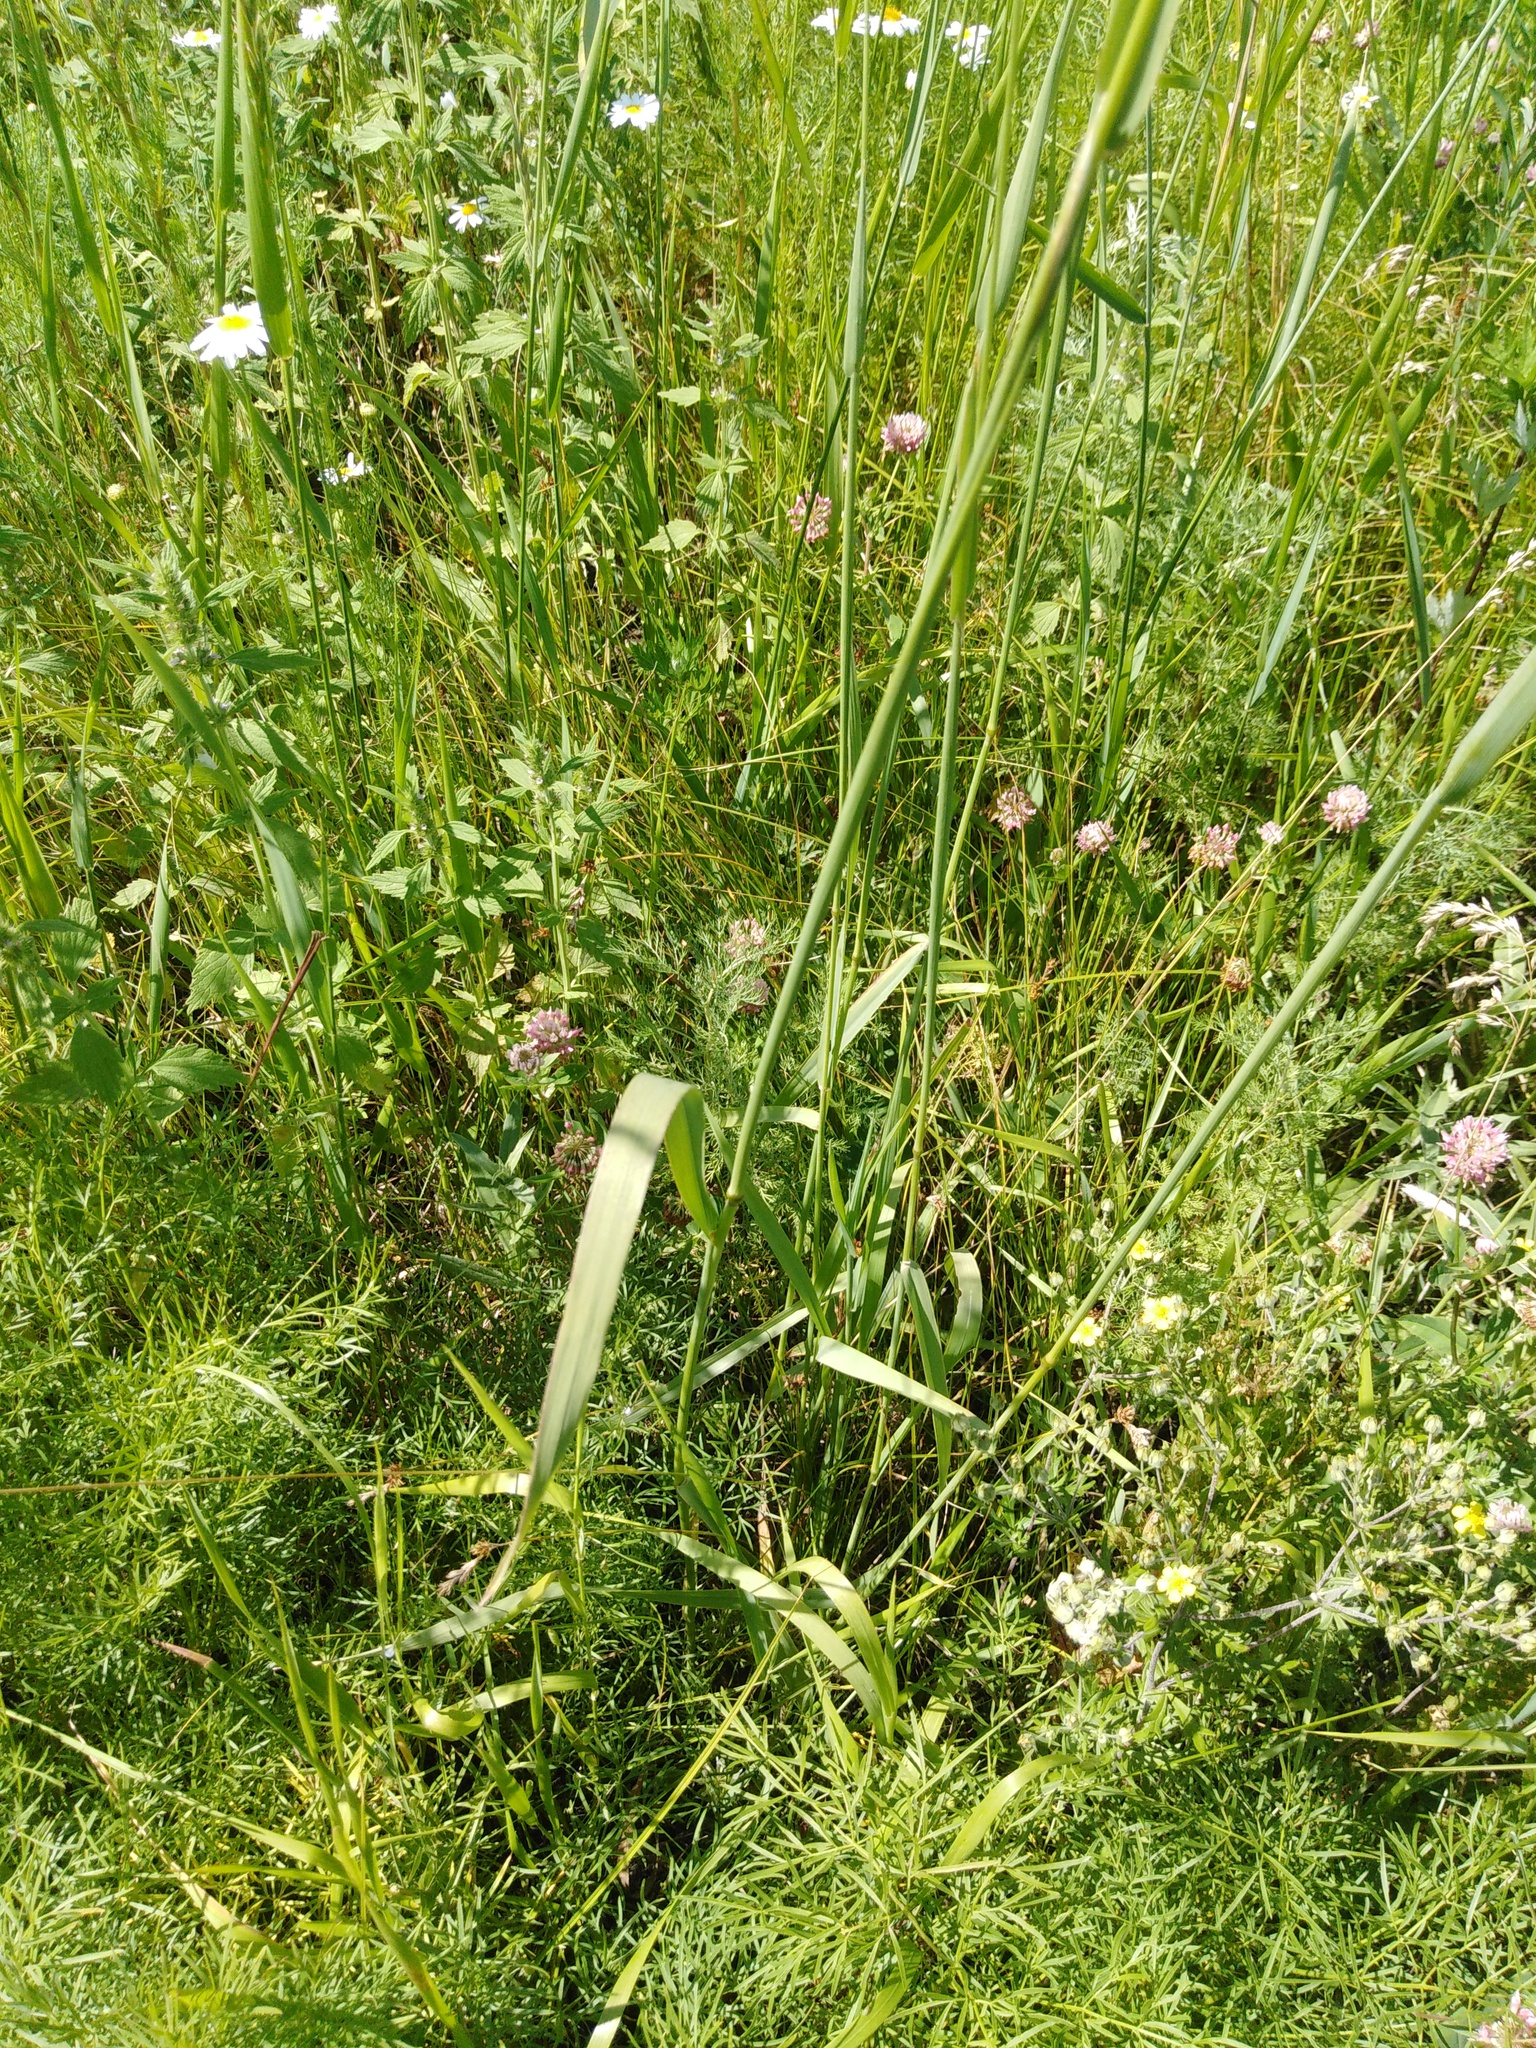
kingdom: Plantae
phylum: Tracheophyta
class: Liliopsida
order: Poales
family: Poaceae
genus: Phleum
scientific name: Phleum pratense
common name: Timothy grass
